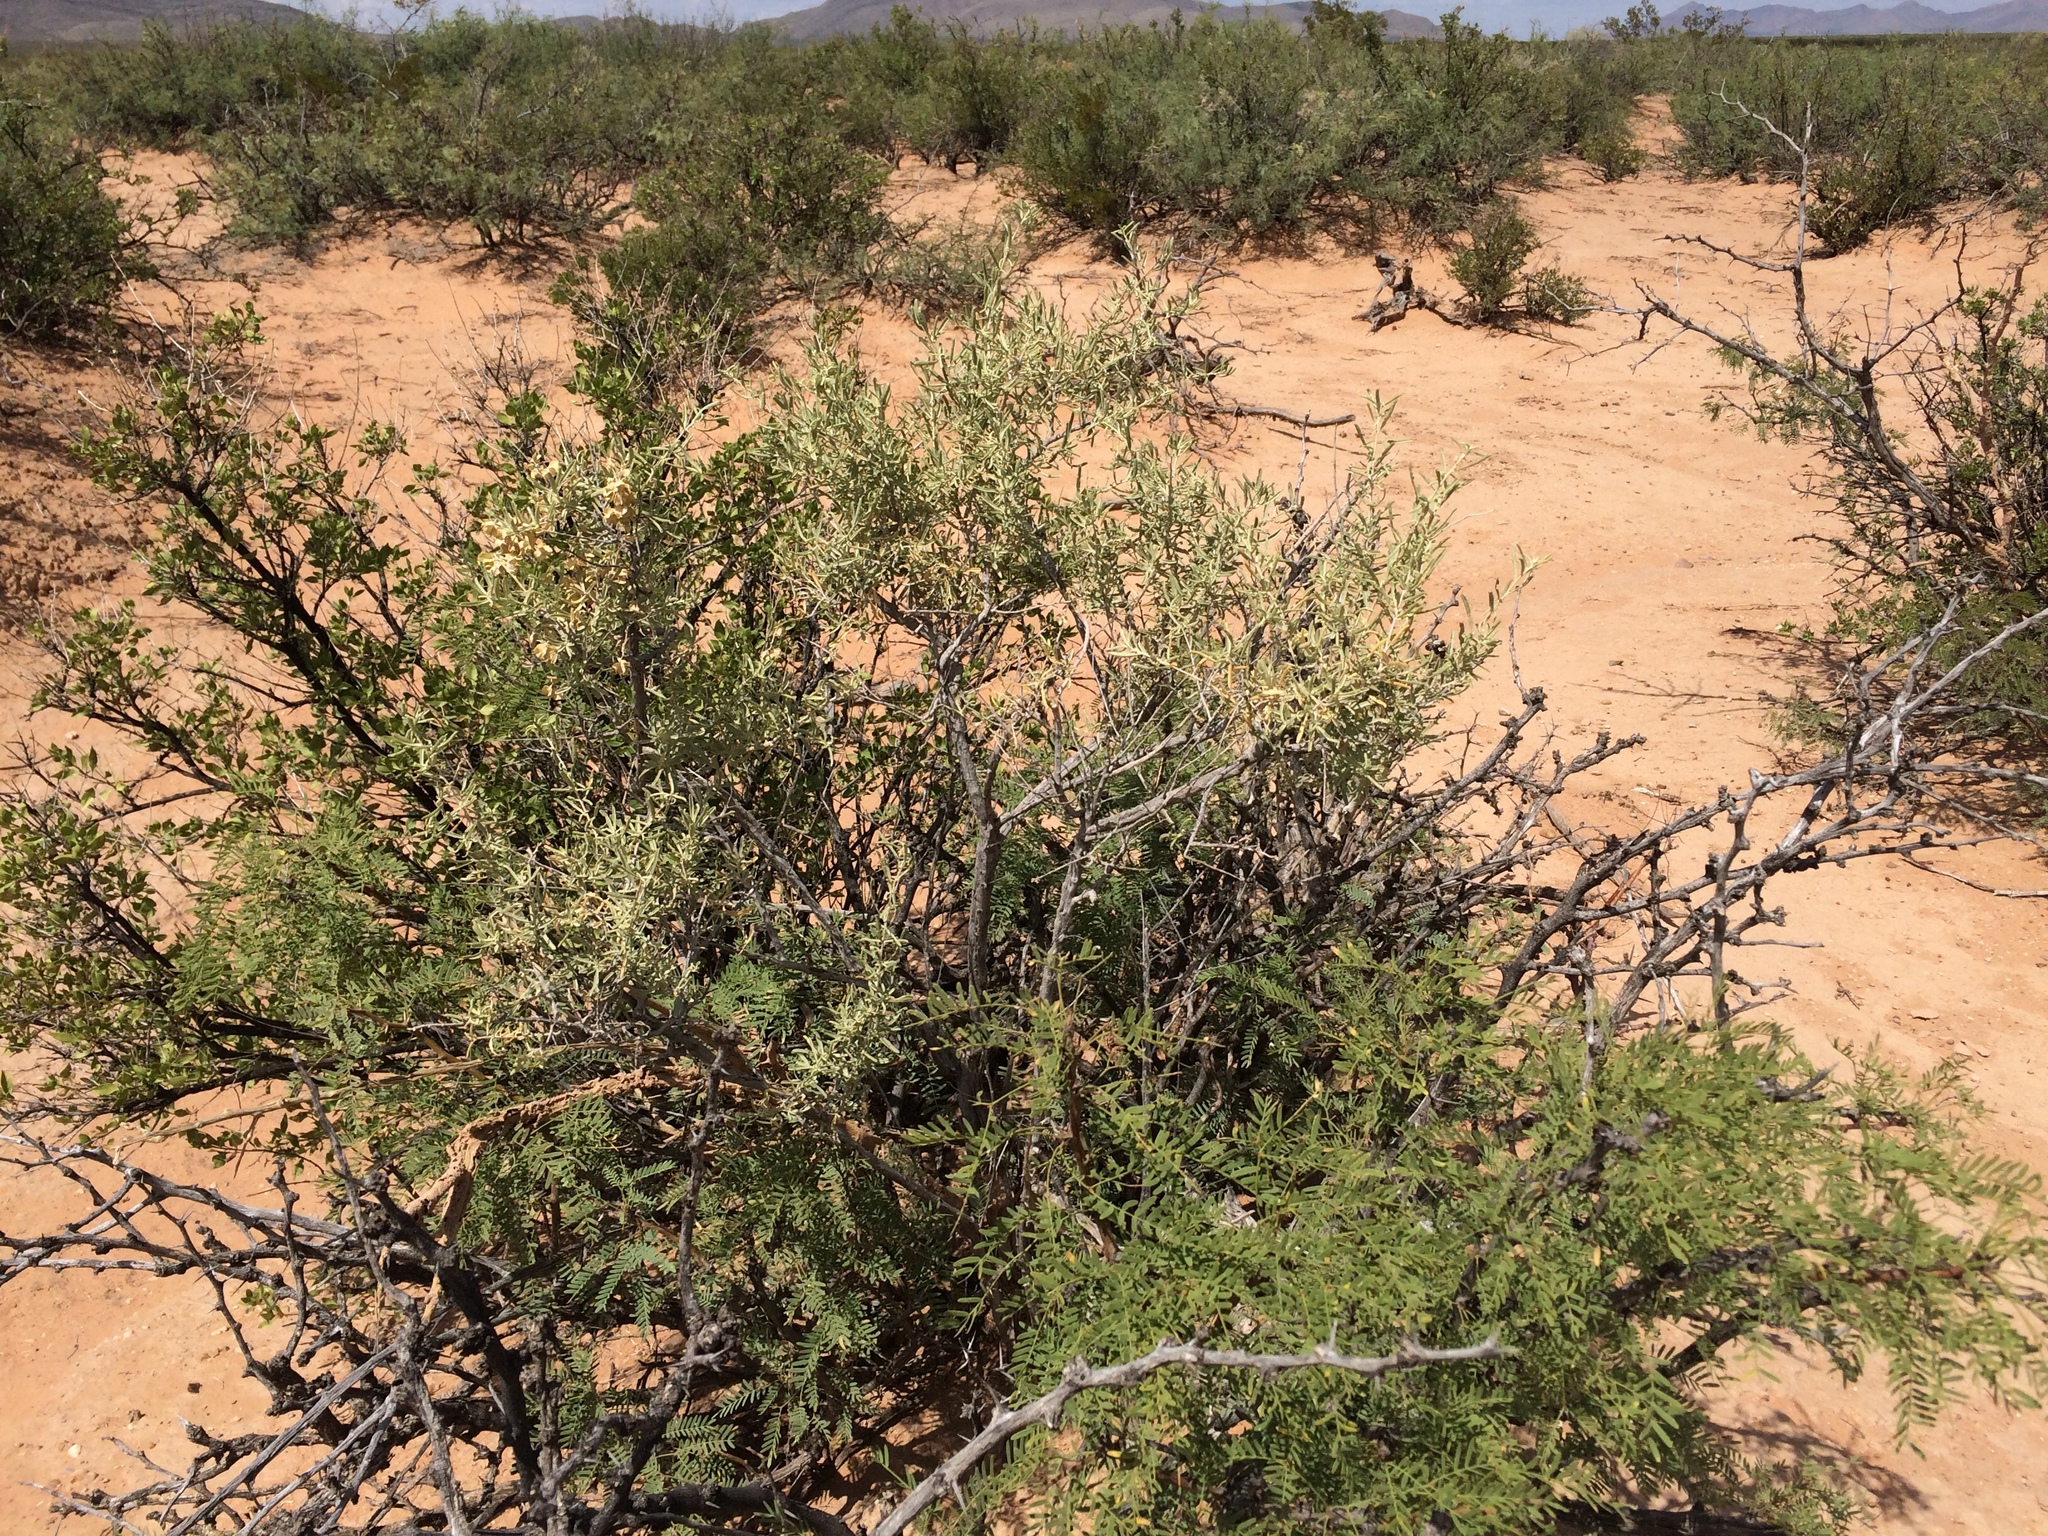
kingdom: Plantae
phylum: Tracheophyta
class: Magnoliopsida
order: Caryophyllales
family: Amaranthaceae
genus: Atriplex
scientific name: Atriplex canescens
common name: Four-wing saltbush
